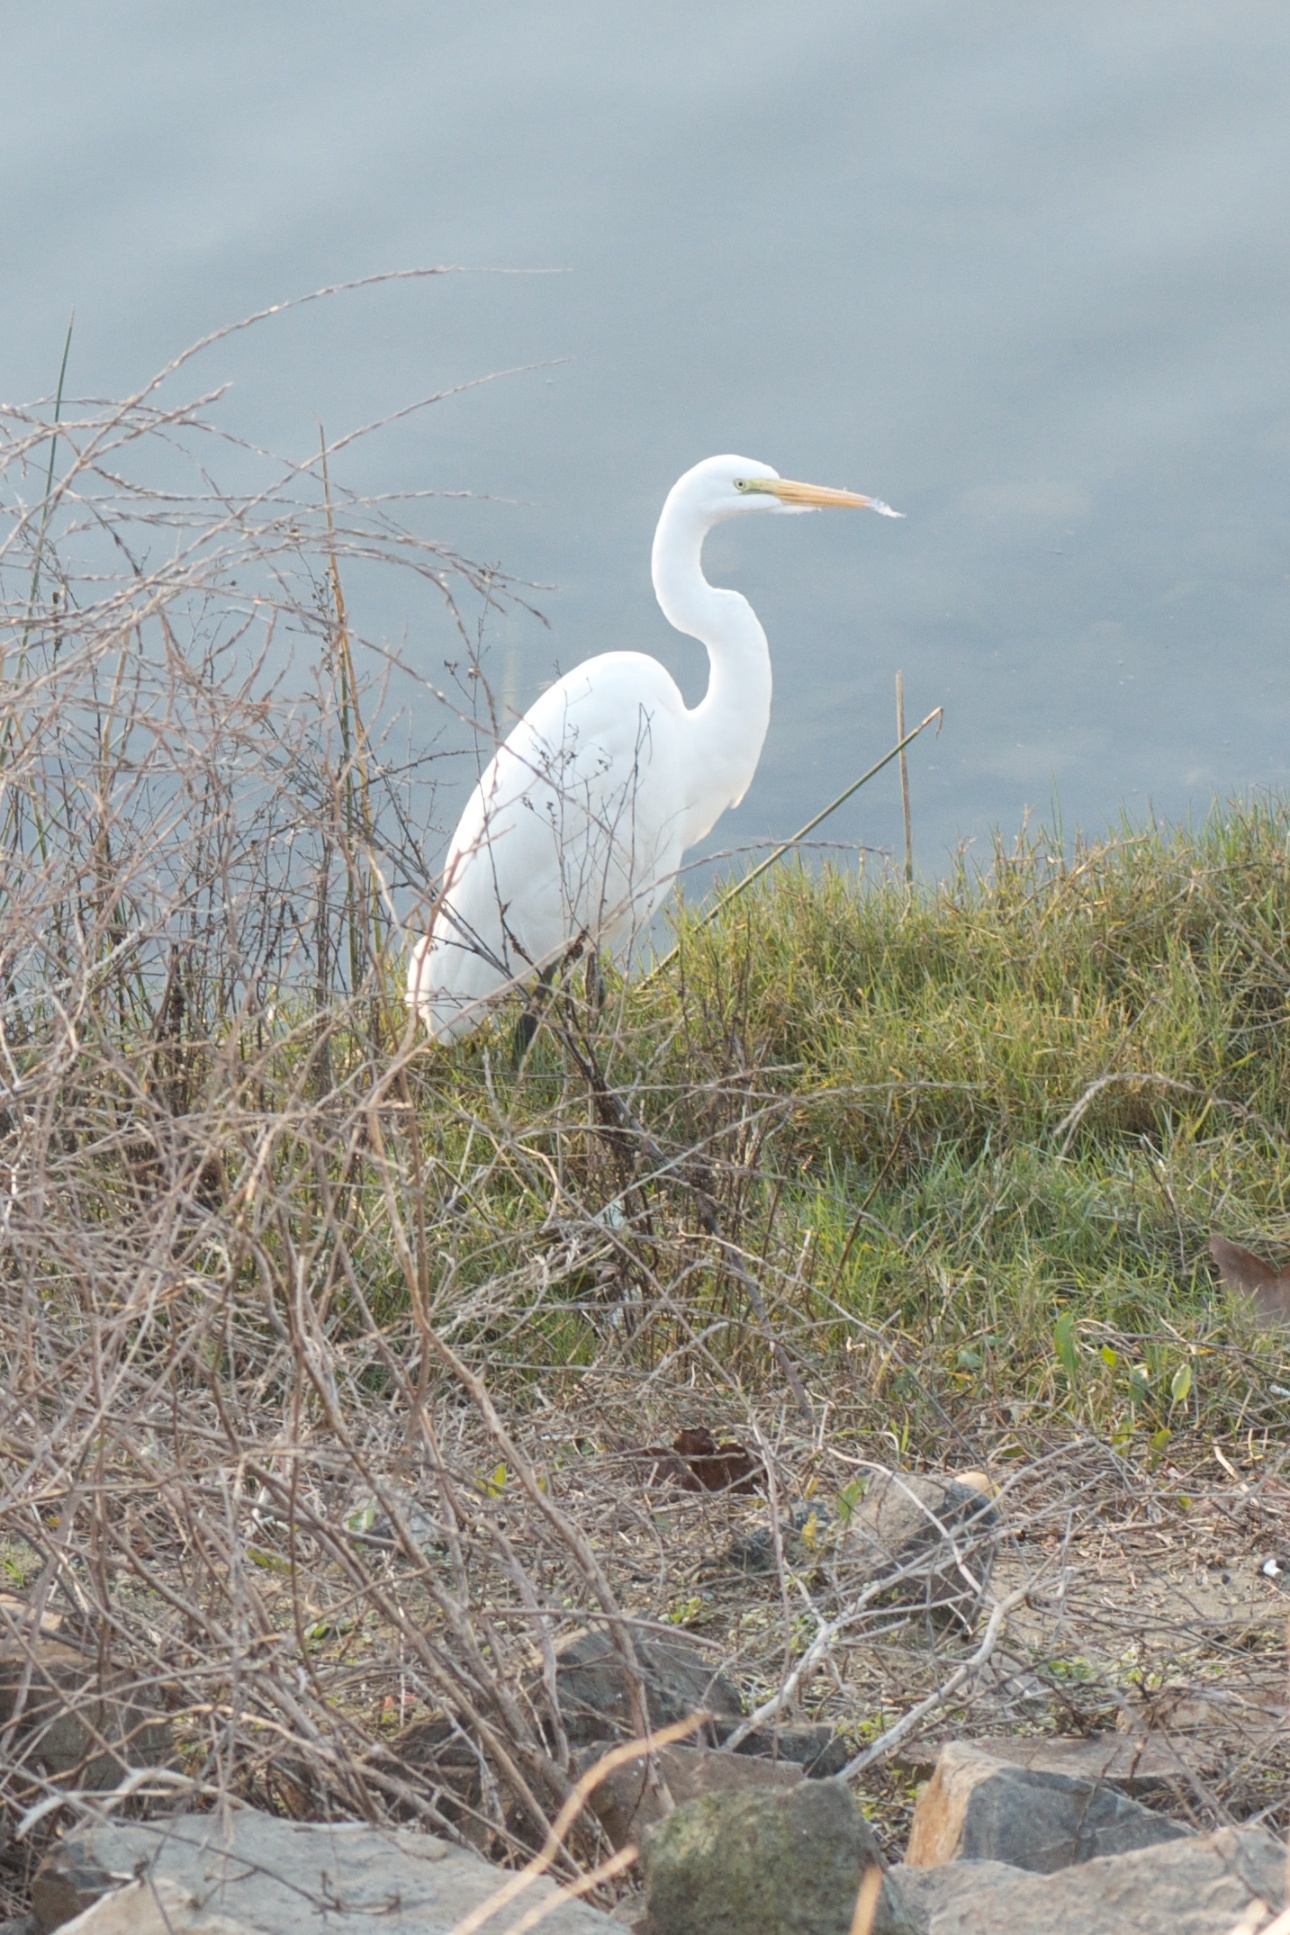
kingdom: Animalia
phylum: Chordata
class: Aves
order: Pelecaniformes
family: Ardeidae
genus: Ardea
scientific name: Ardea alba
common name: Great egret
